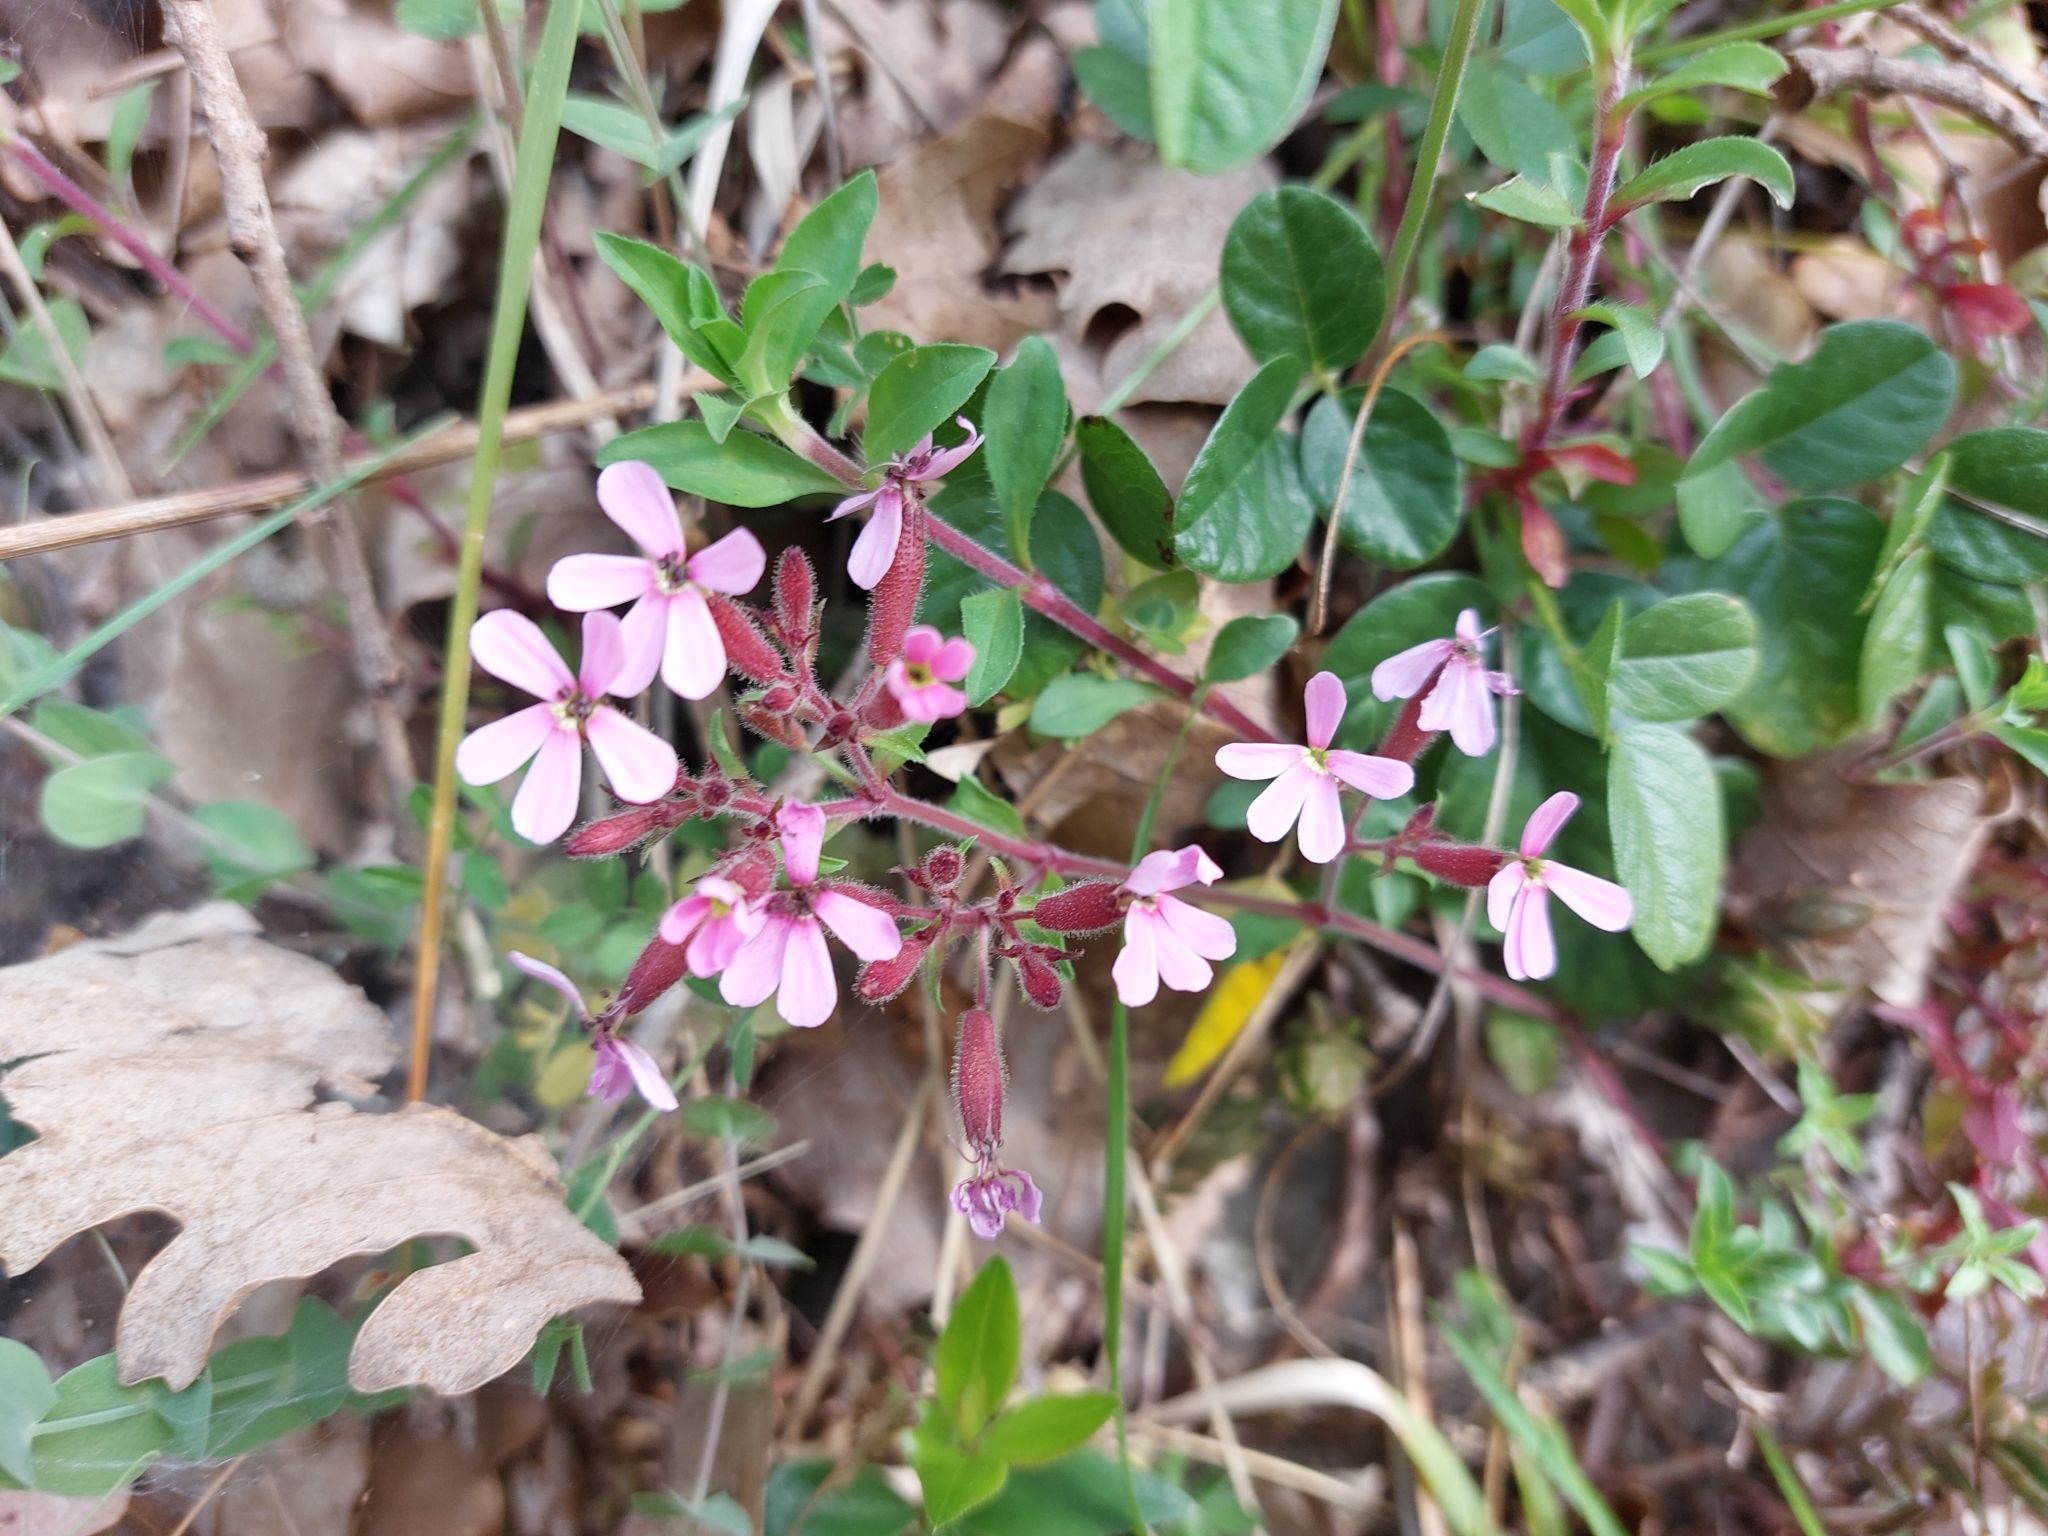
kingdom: Plantae
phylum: Tracheophyta
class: Magnoliopsida
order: Caryophyllales
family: Caryophyllaceae
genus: Saponaria
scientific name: Saponaria ocymoides
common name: Rock soapwort
